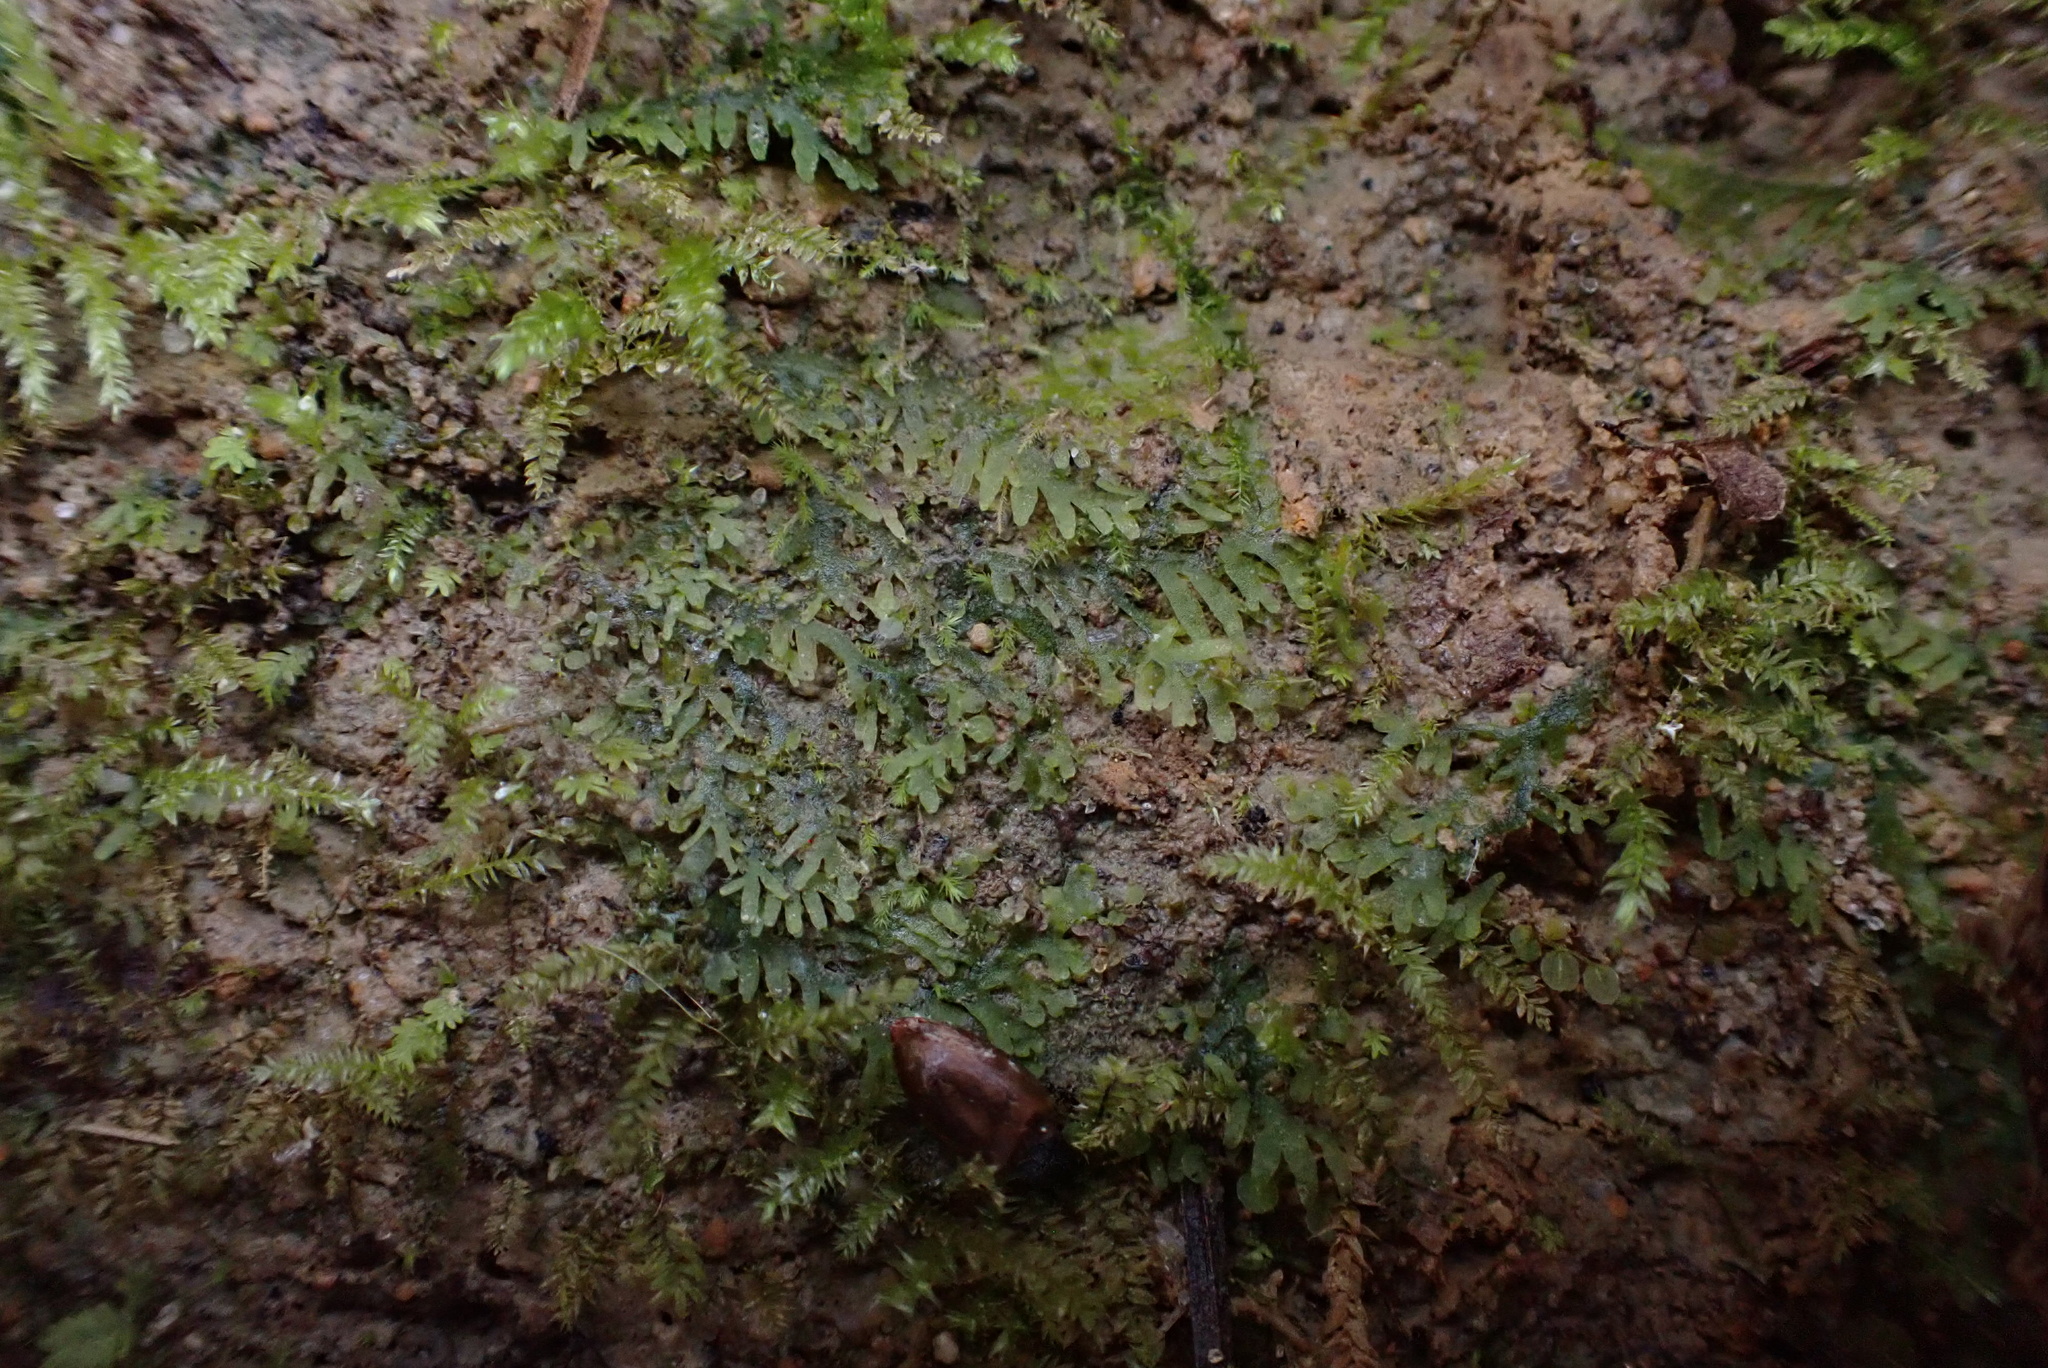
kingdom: Plantae
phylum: Marchantiophyta
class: Jungermanniopsida
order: Metzgeriales
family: Aneuraceae
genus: Riccardia
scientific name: Riccardia multifida
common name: Delicate germanderwort
